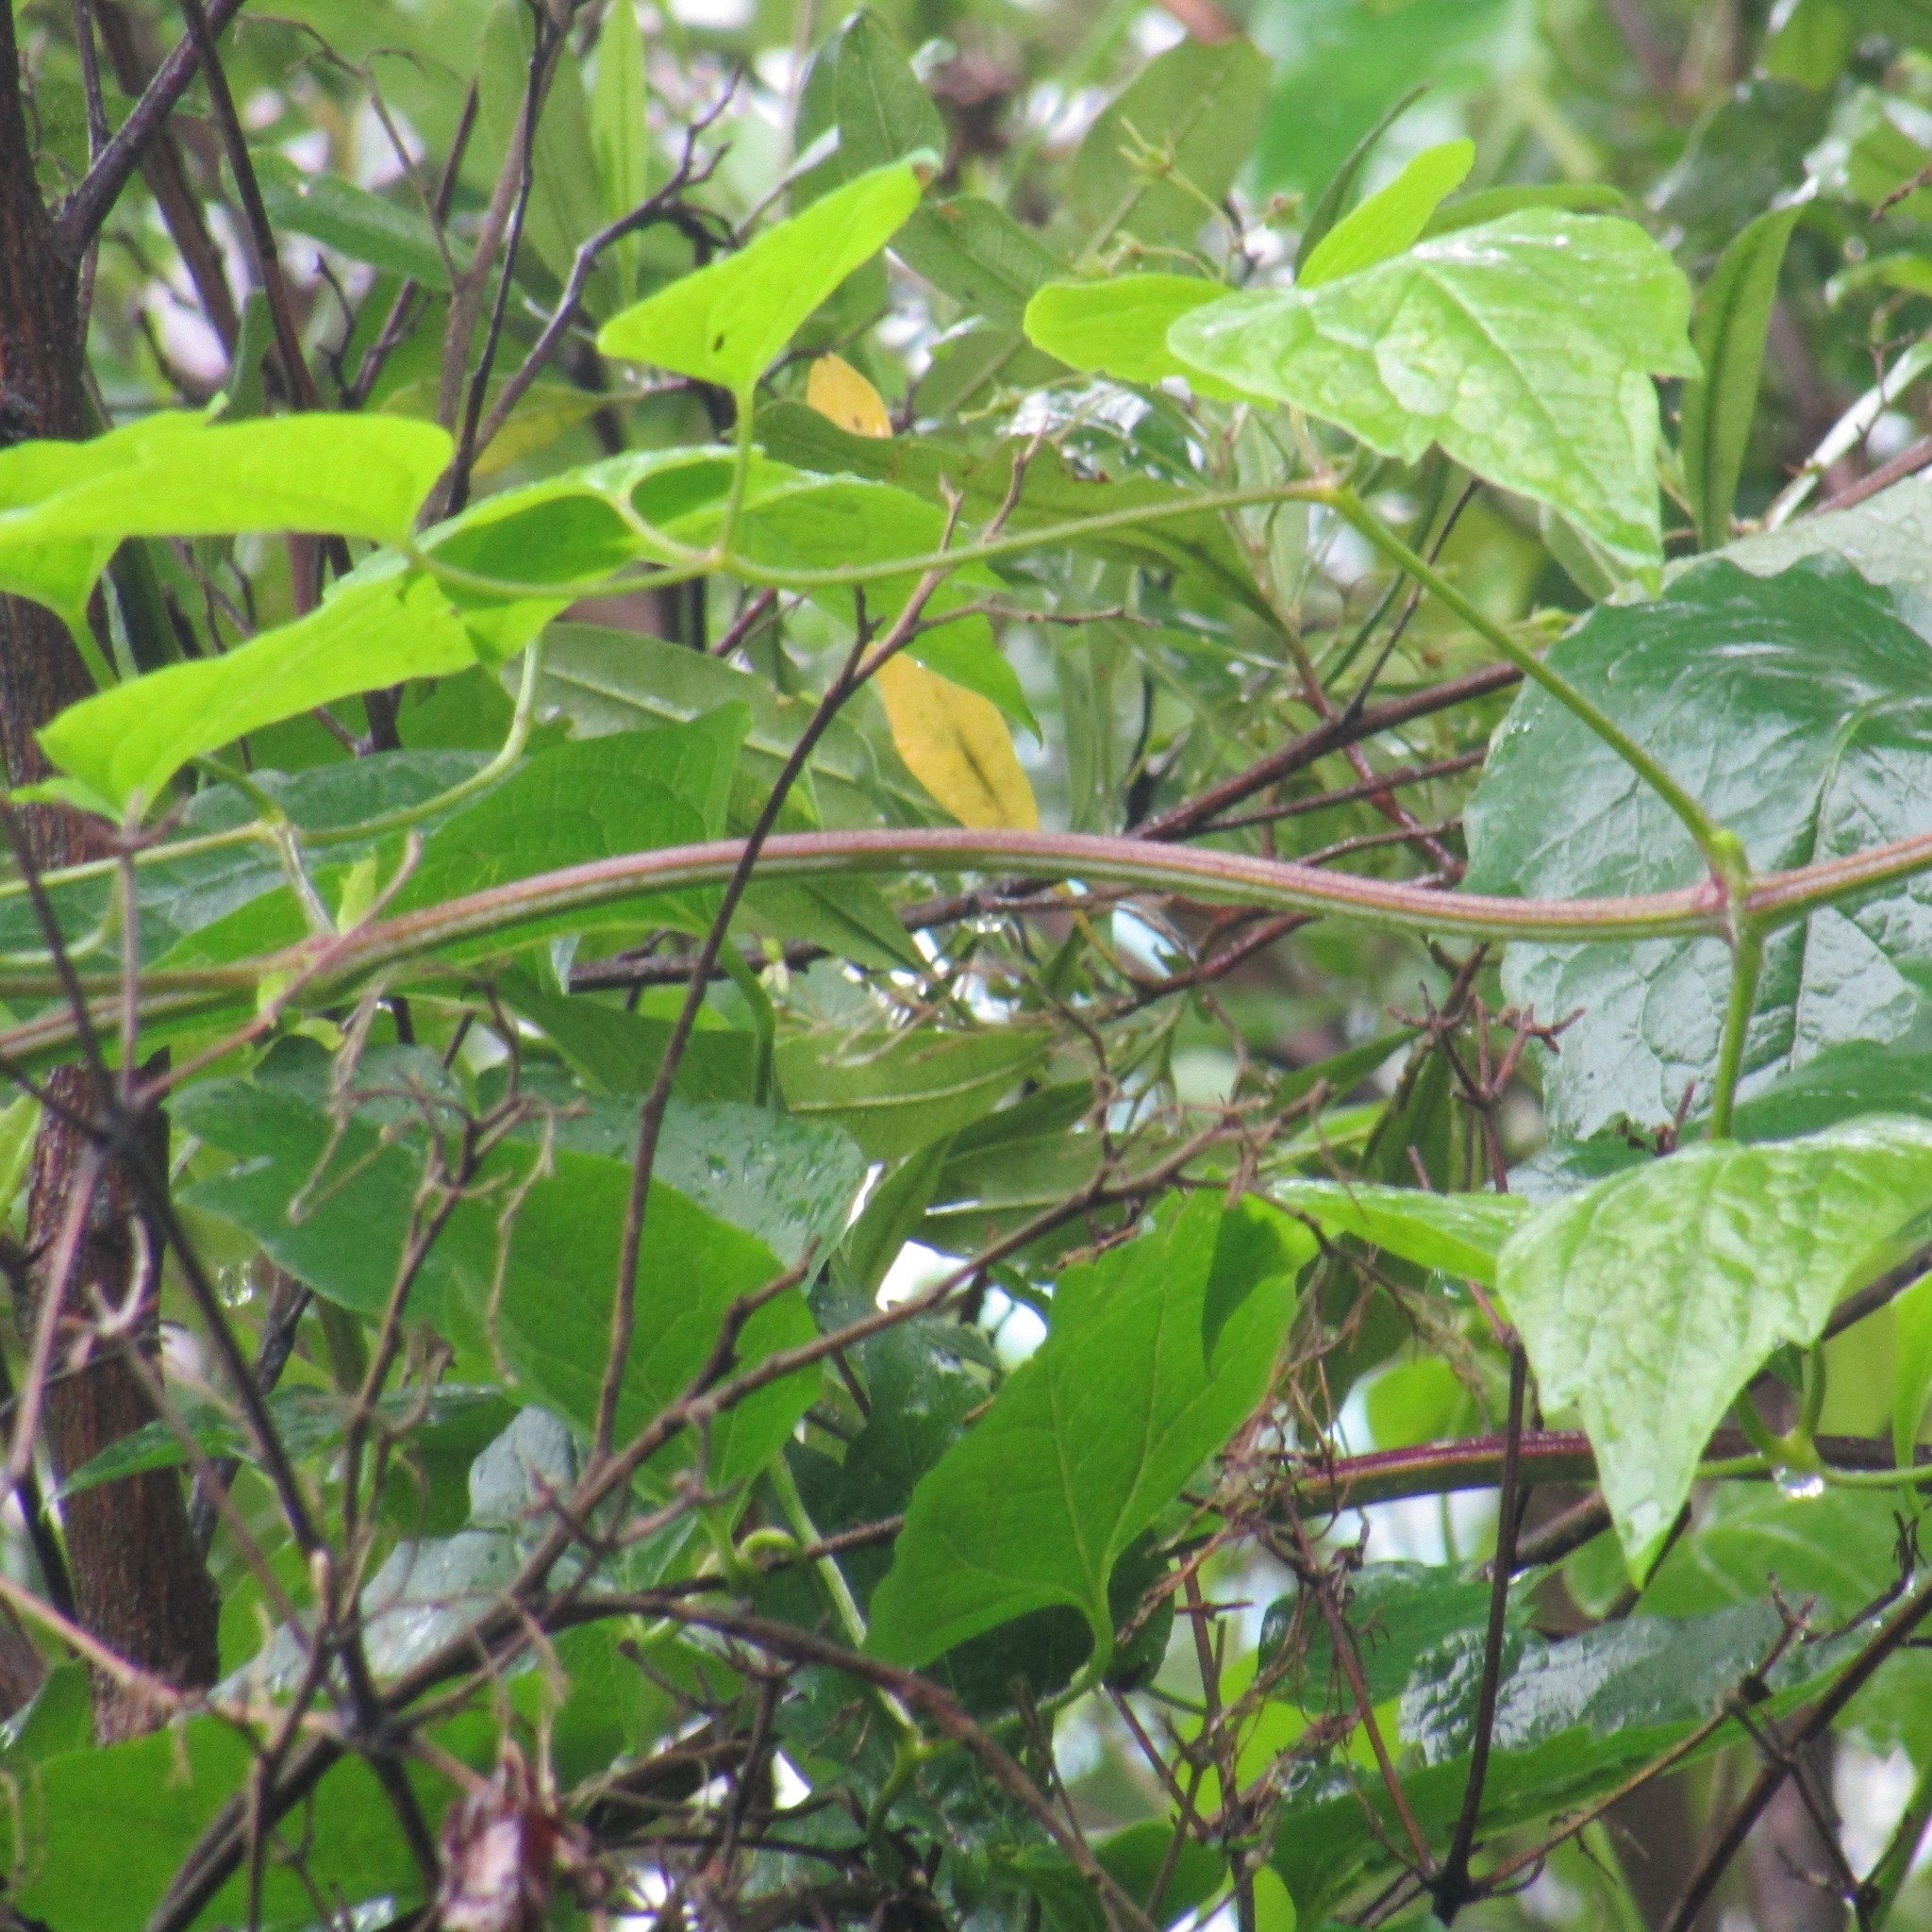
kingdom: Plantae
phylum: Tracheophyta
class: Magnoliopsida
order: Ranunculales
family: Ranunculaceae
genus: Clematis
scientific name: Clematis vitalba
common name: Evergreen clematis
